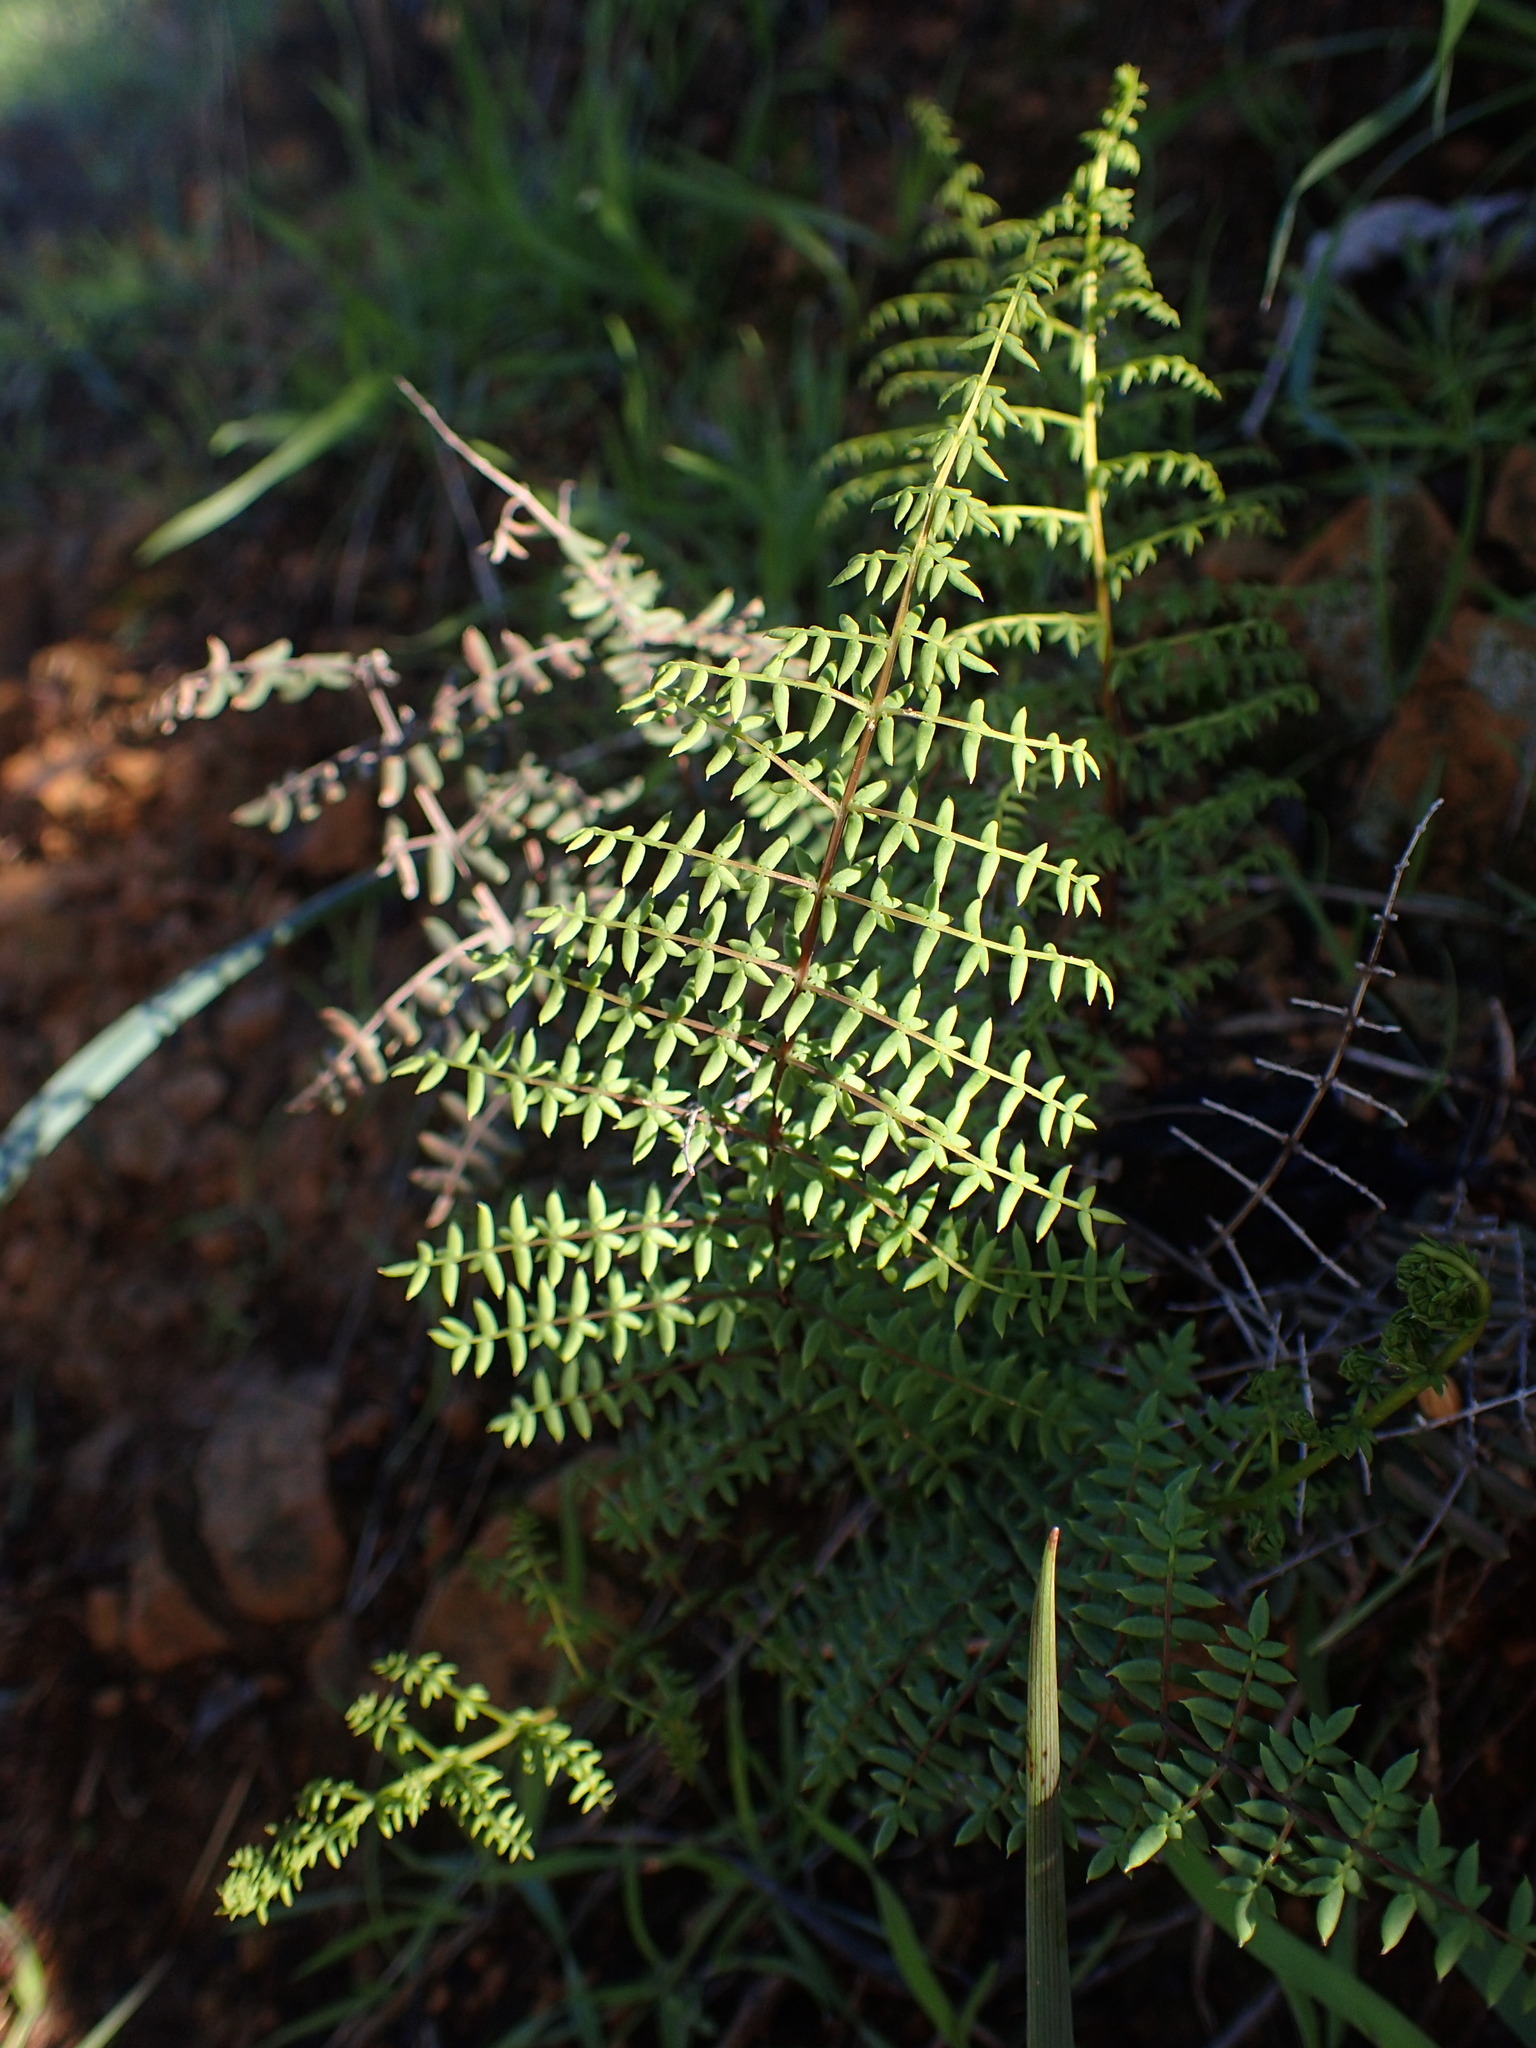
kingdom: Plantae
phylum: Tracheophyta
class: Polypodiopsida
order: Polypodiales
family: Pteridaceae
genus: Pellaea
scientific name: Pellaea mucronata
